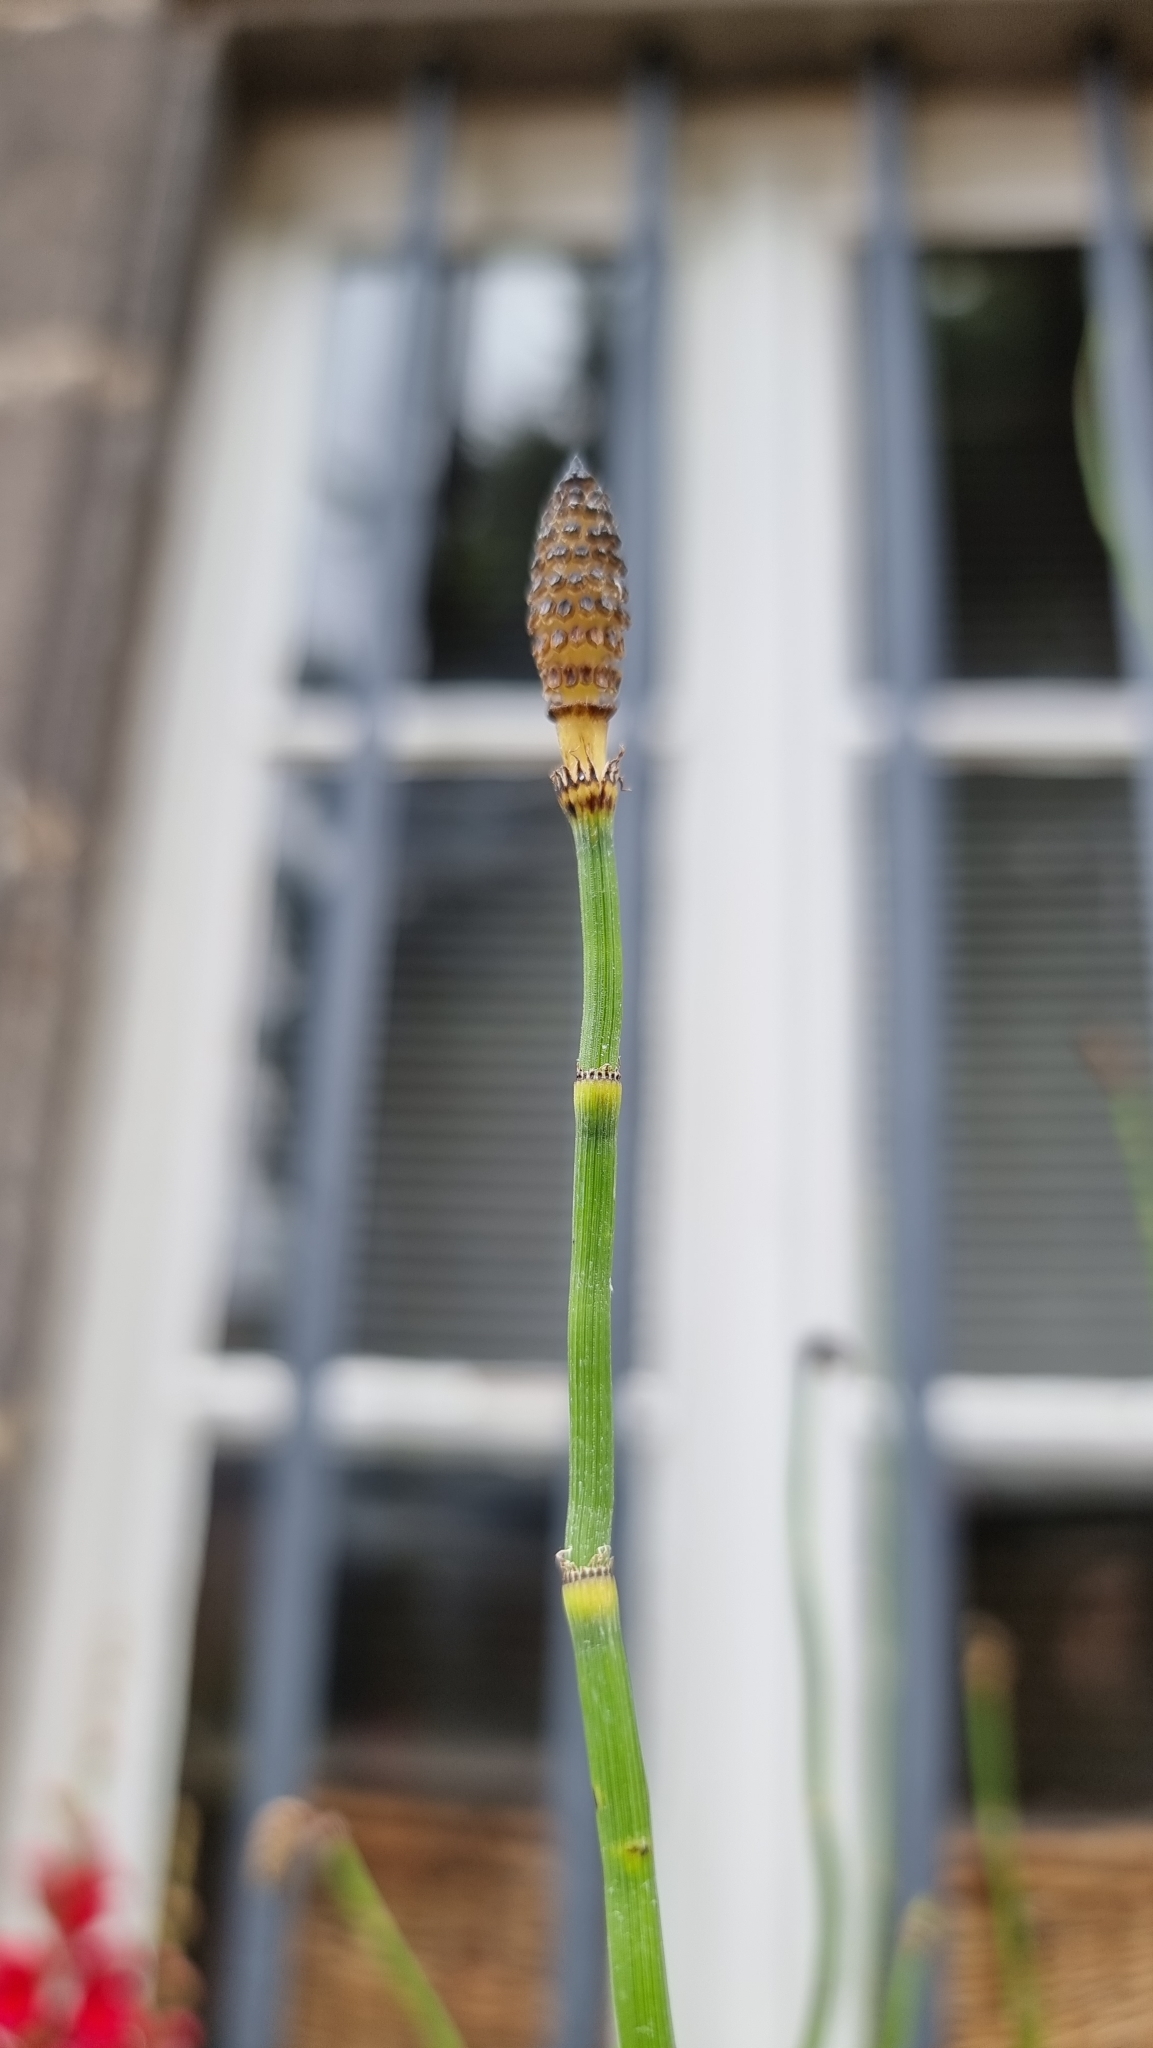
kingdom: Plantae
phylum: Tracheophyta
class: Polypodiopsida
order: Equisetales
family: Equisetaceae
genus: Equisetum
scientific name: Equisetum hyemale
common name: Rough horsetail
